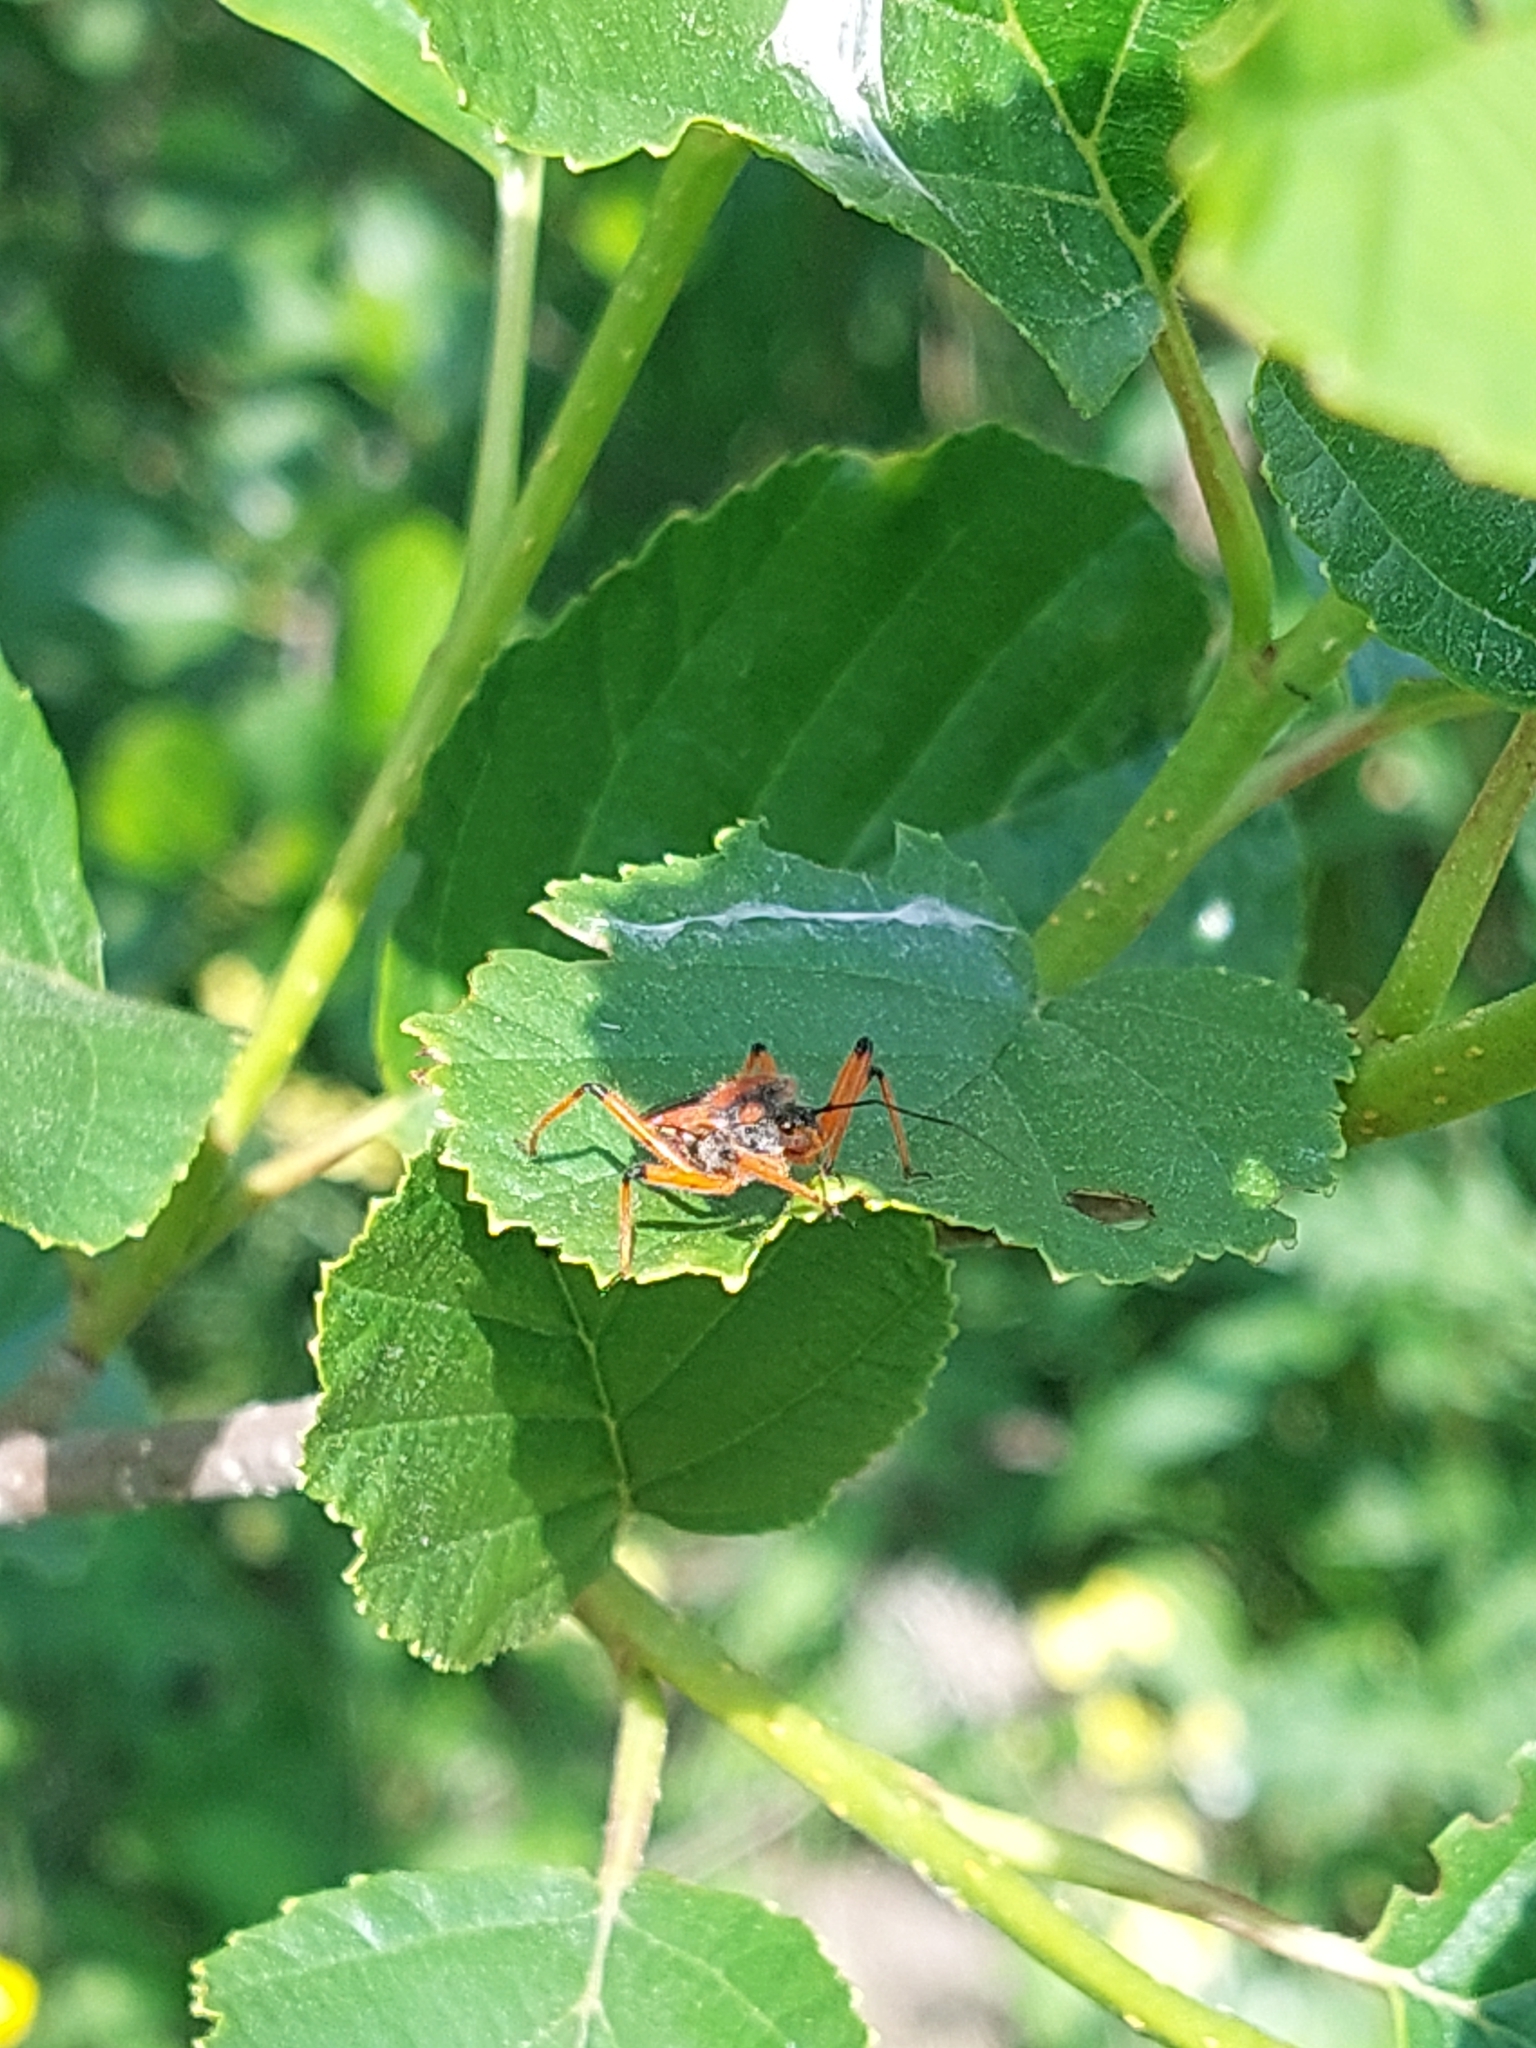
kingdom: Animalia
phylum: Arthropoda
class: Insecta
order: Hemiptera
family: Reduviidae
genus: Rhynocoris
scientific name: Rhynocoris iracundus
